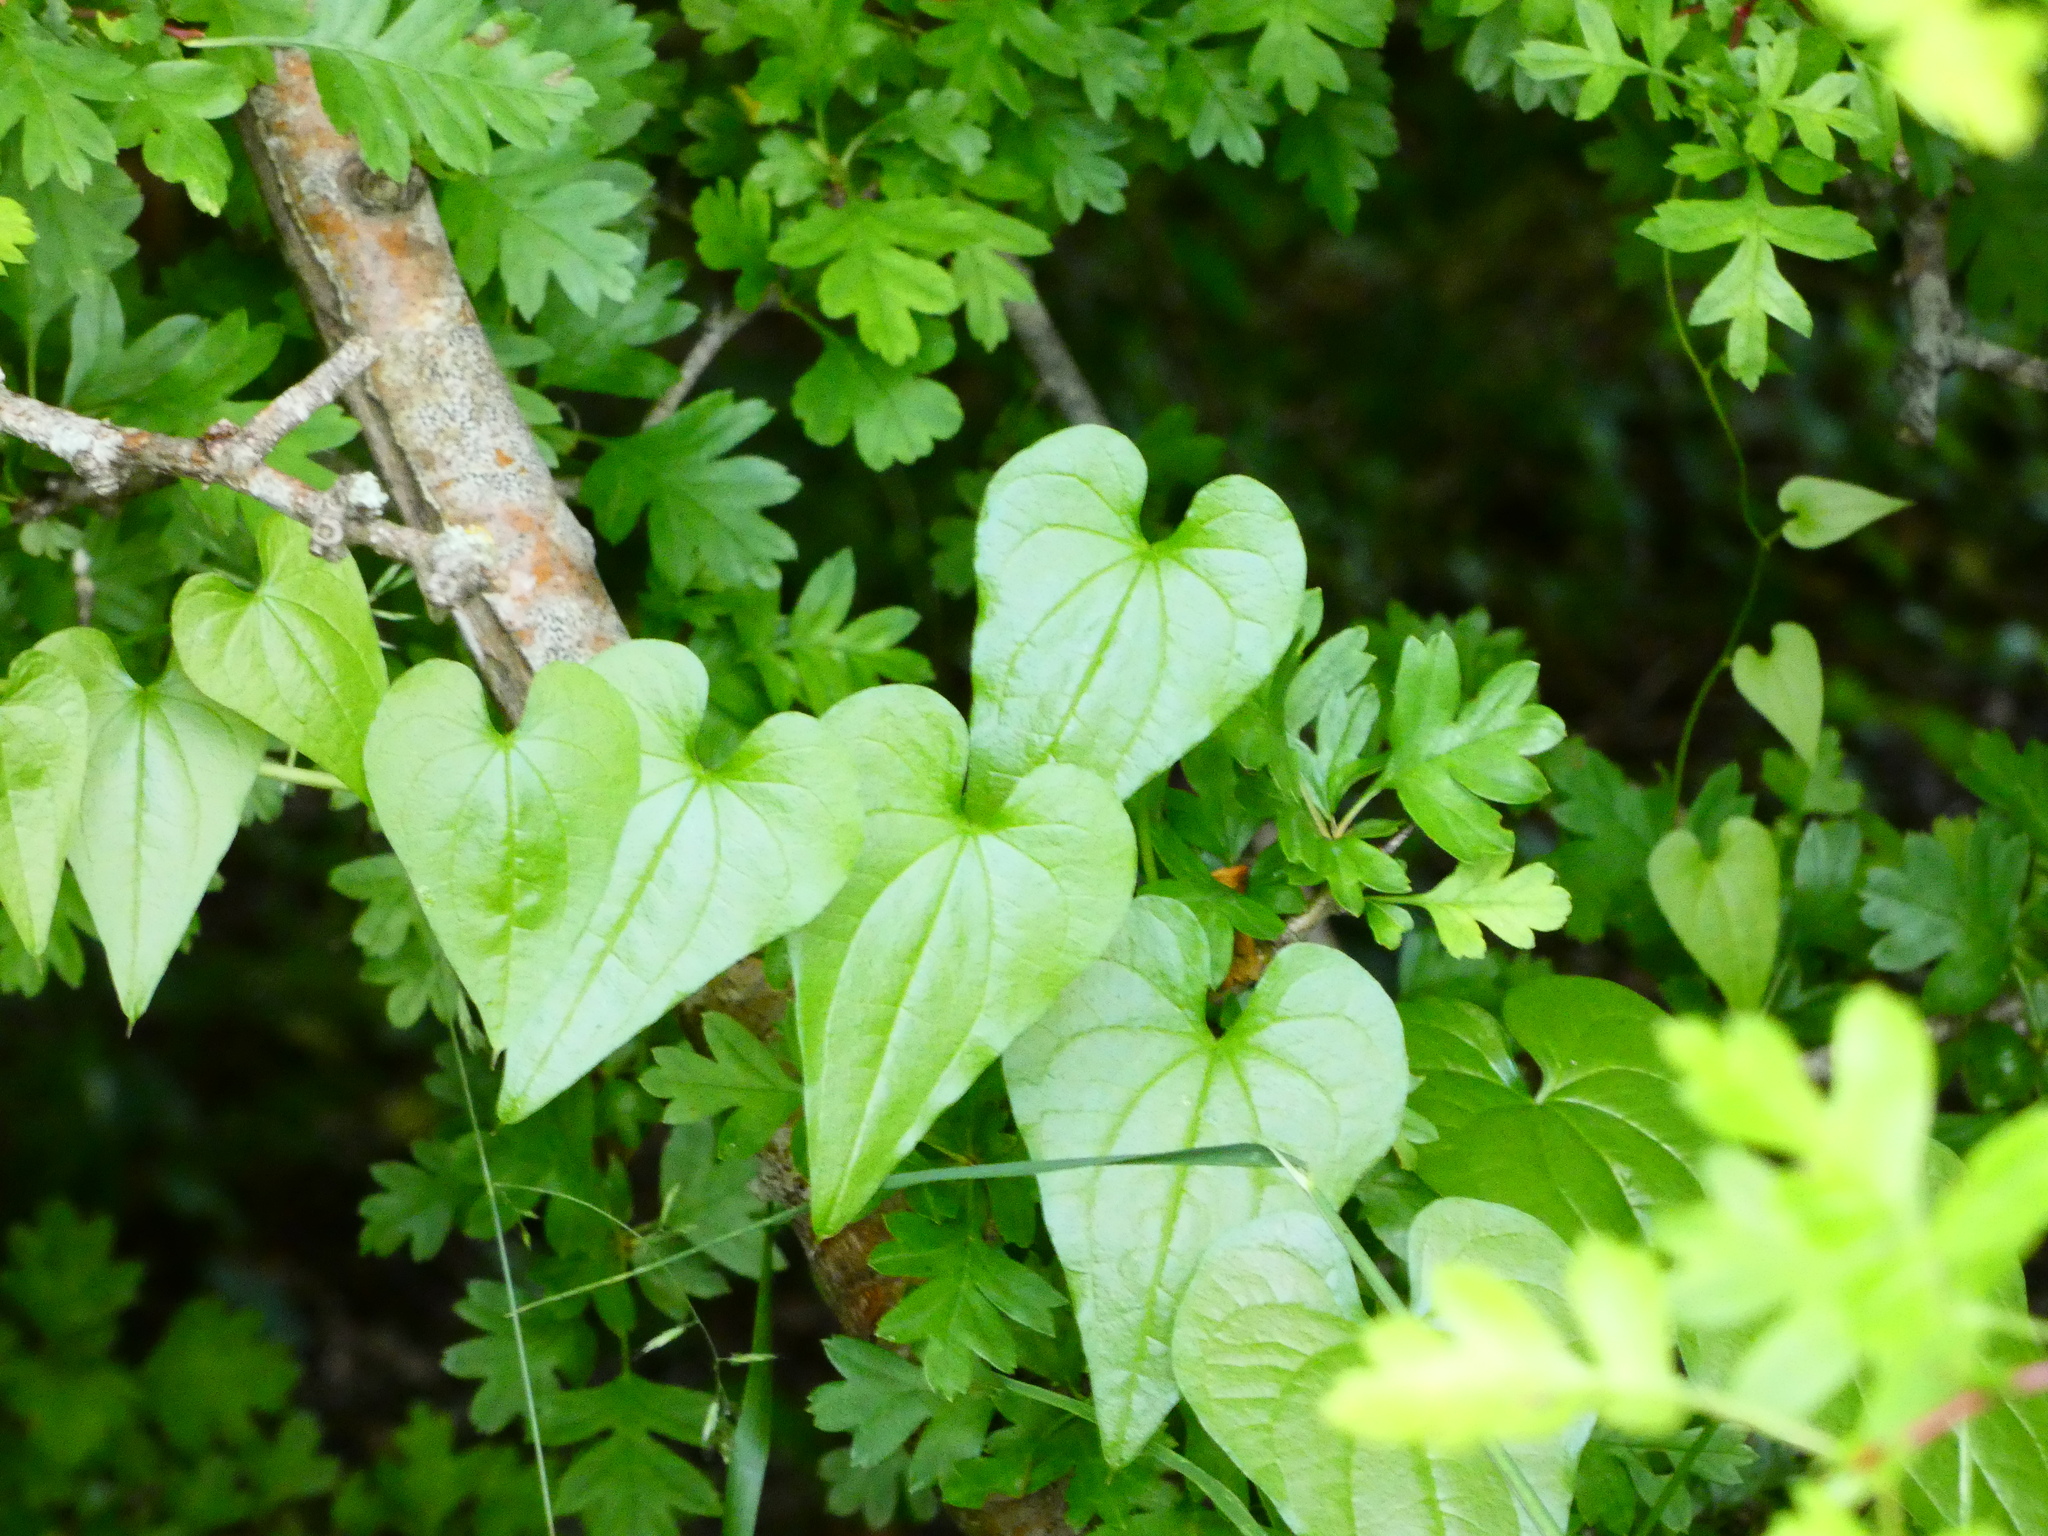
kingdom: Plantae
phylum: Tracheophyta
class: Liliopsida
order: Dioscoreales
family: Dioscoreaceae
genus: Dioscorea
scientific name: Dioscorea communis
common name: Black-bindweed
